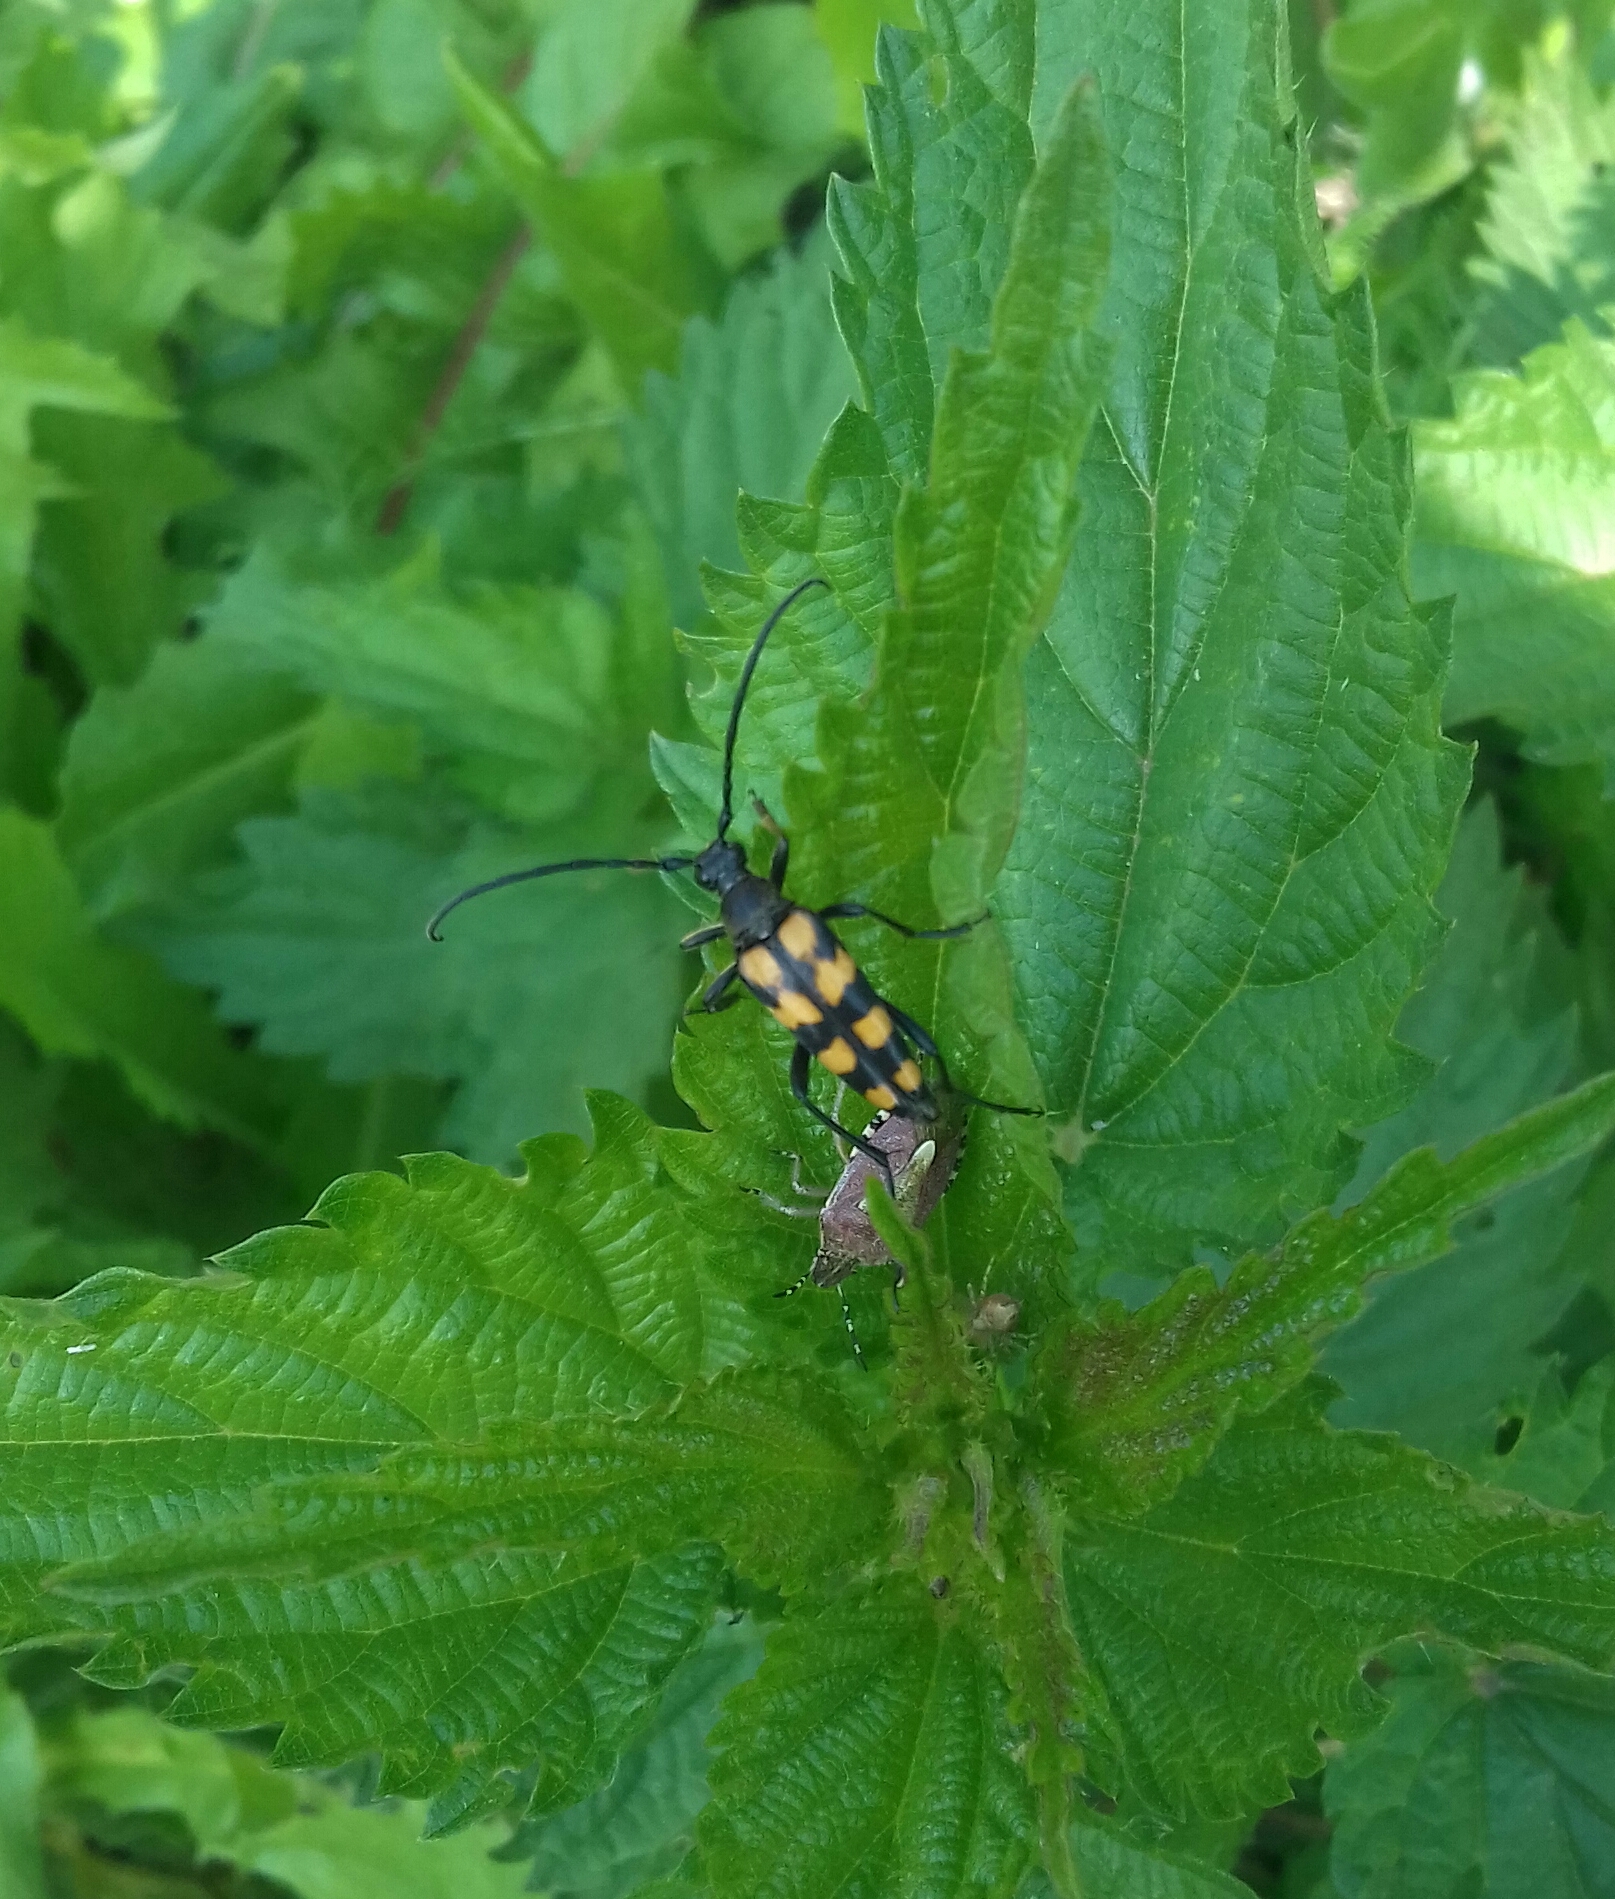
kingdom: Animalia
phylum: Arthropoda
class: Insecta
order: Coleoptera
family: Cerambycidae
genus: Leptura
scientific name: Leptura quadrifasciata
